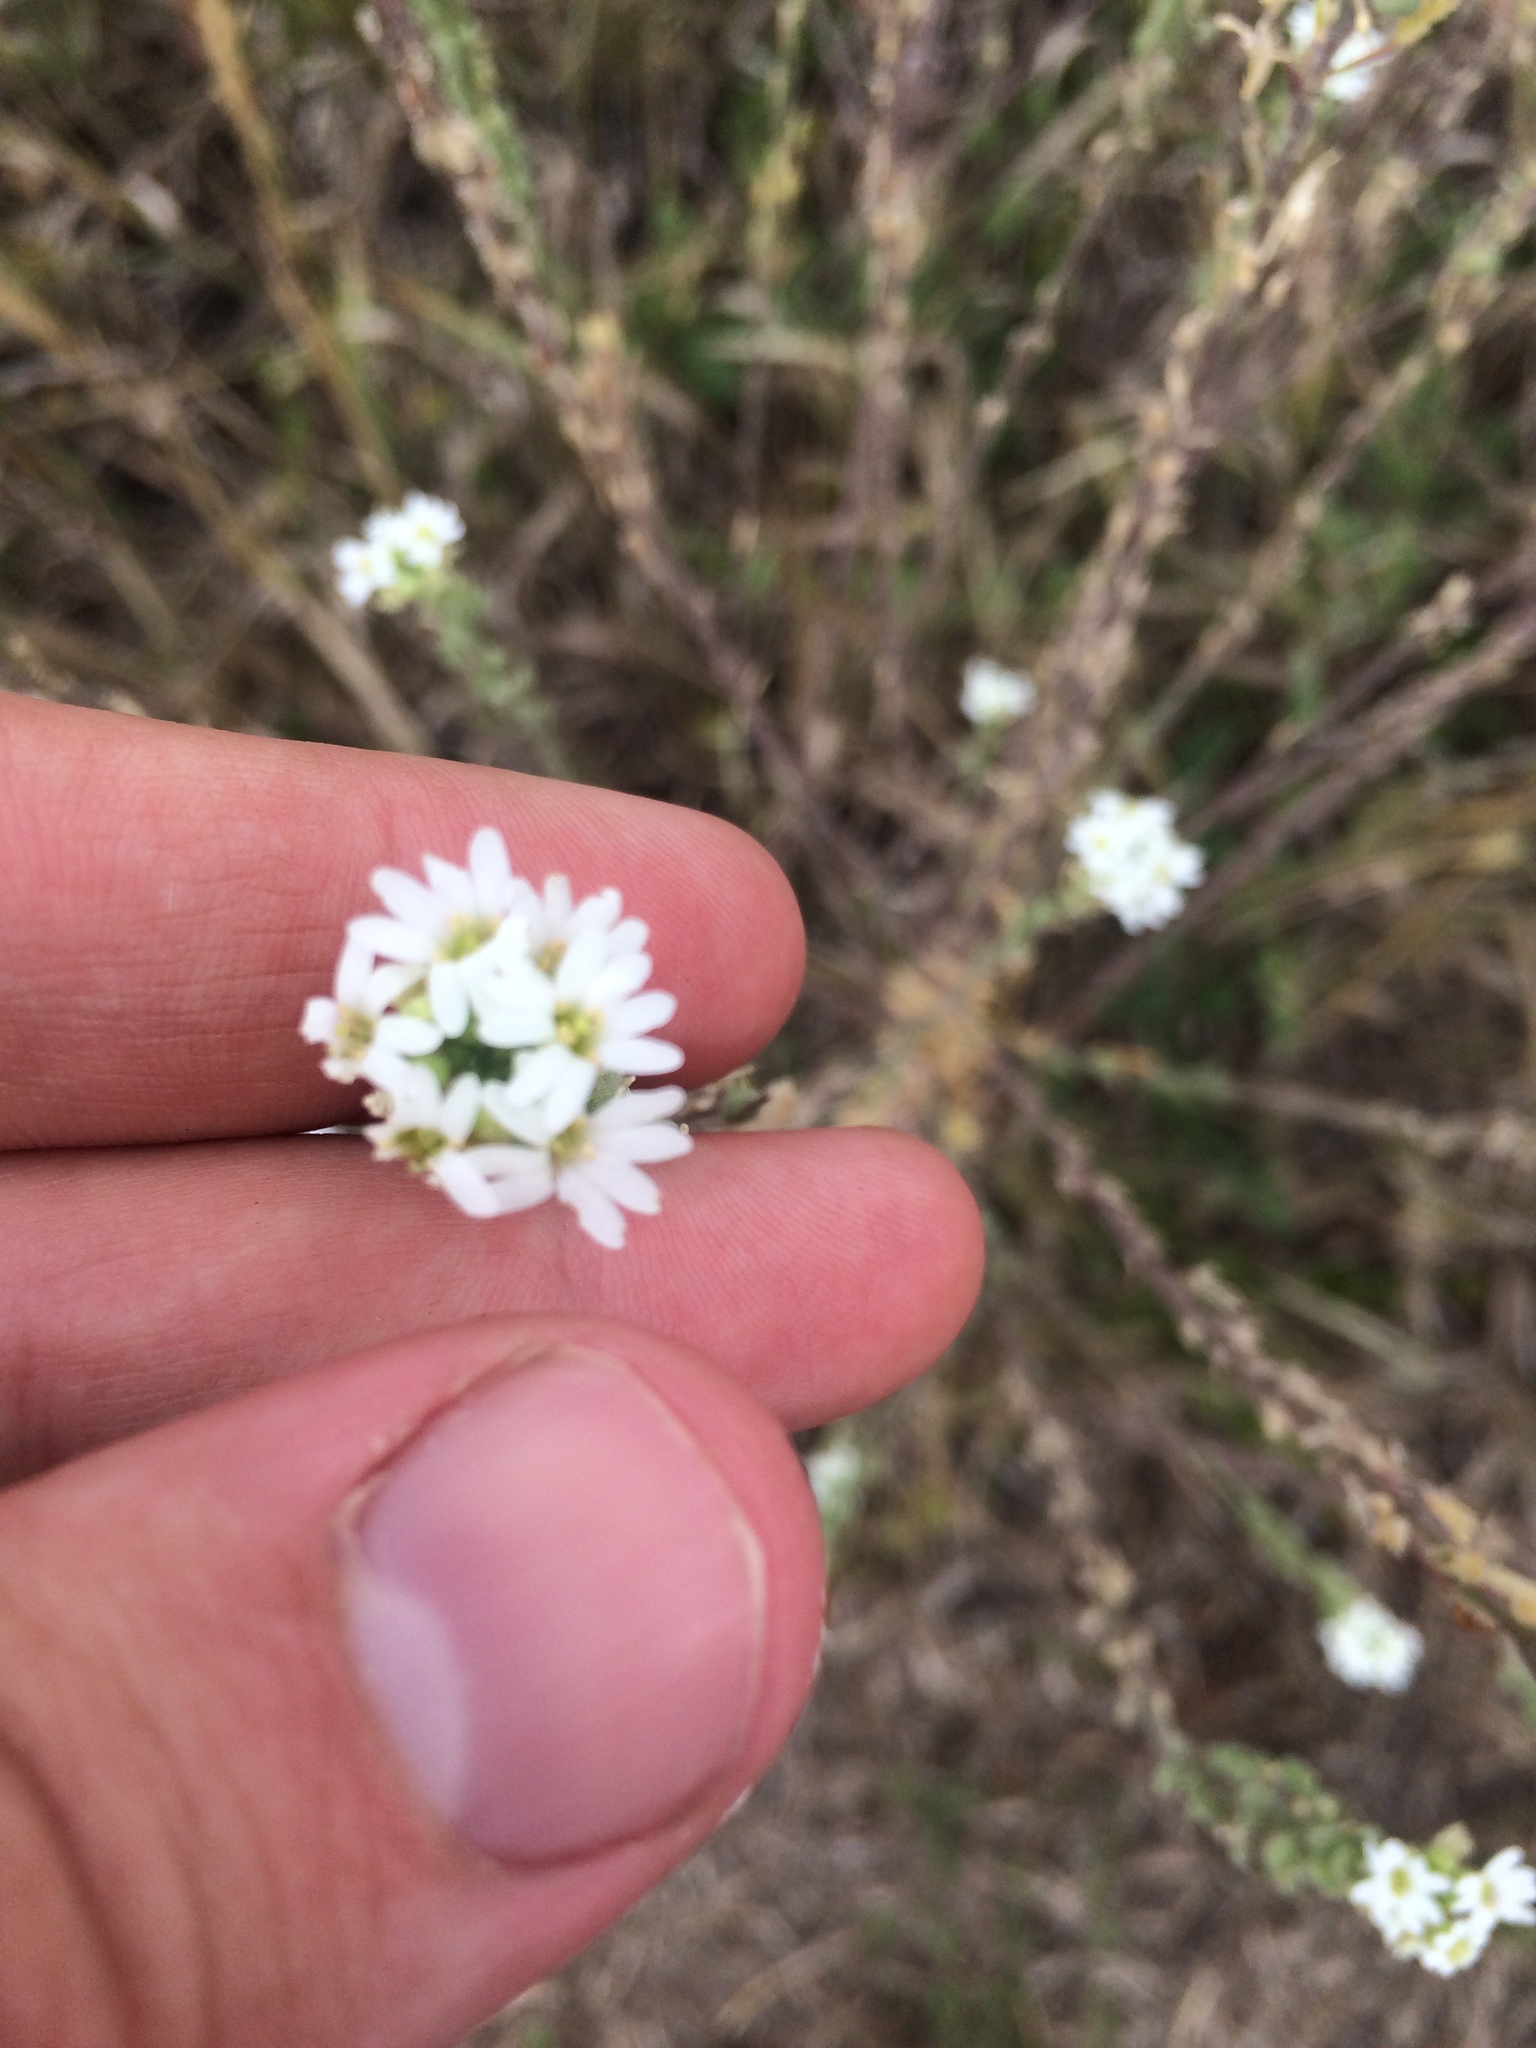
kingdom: Plantae
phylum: Tracheophyta
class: Magnoliopsida
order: Brassicales
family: Brassicaceae
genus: Berteroa
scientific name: Berteroa incana
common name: Hoary alison
